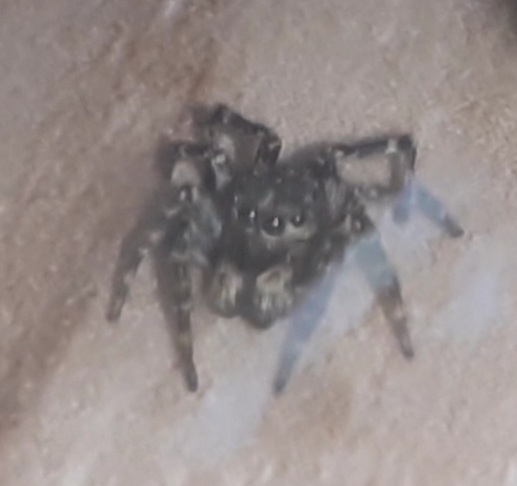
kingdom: Animalia
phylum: Arthropoda
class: Arachnida
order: Araneae
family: Salticidae
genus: Attulus
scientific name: Attulus pubescens
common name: Jumping spider
